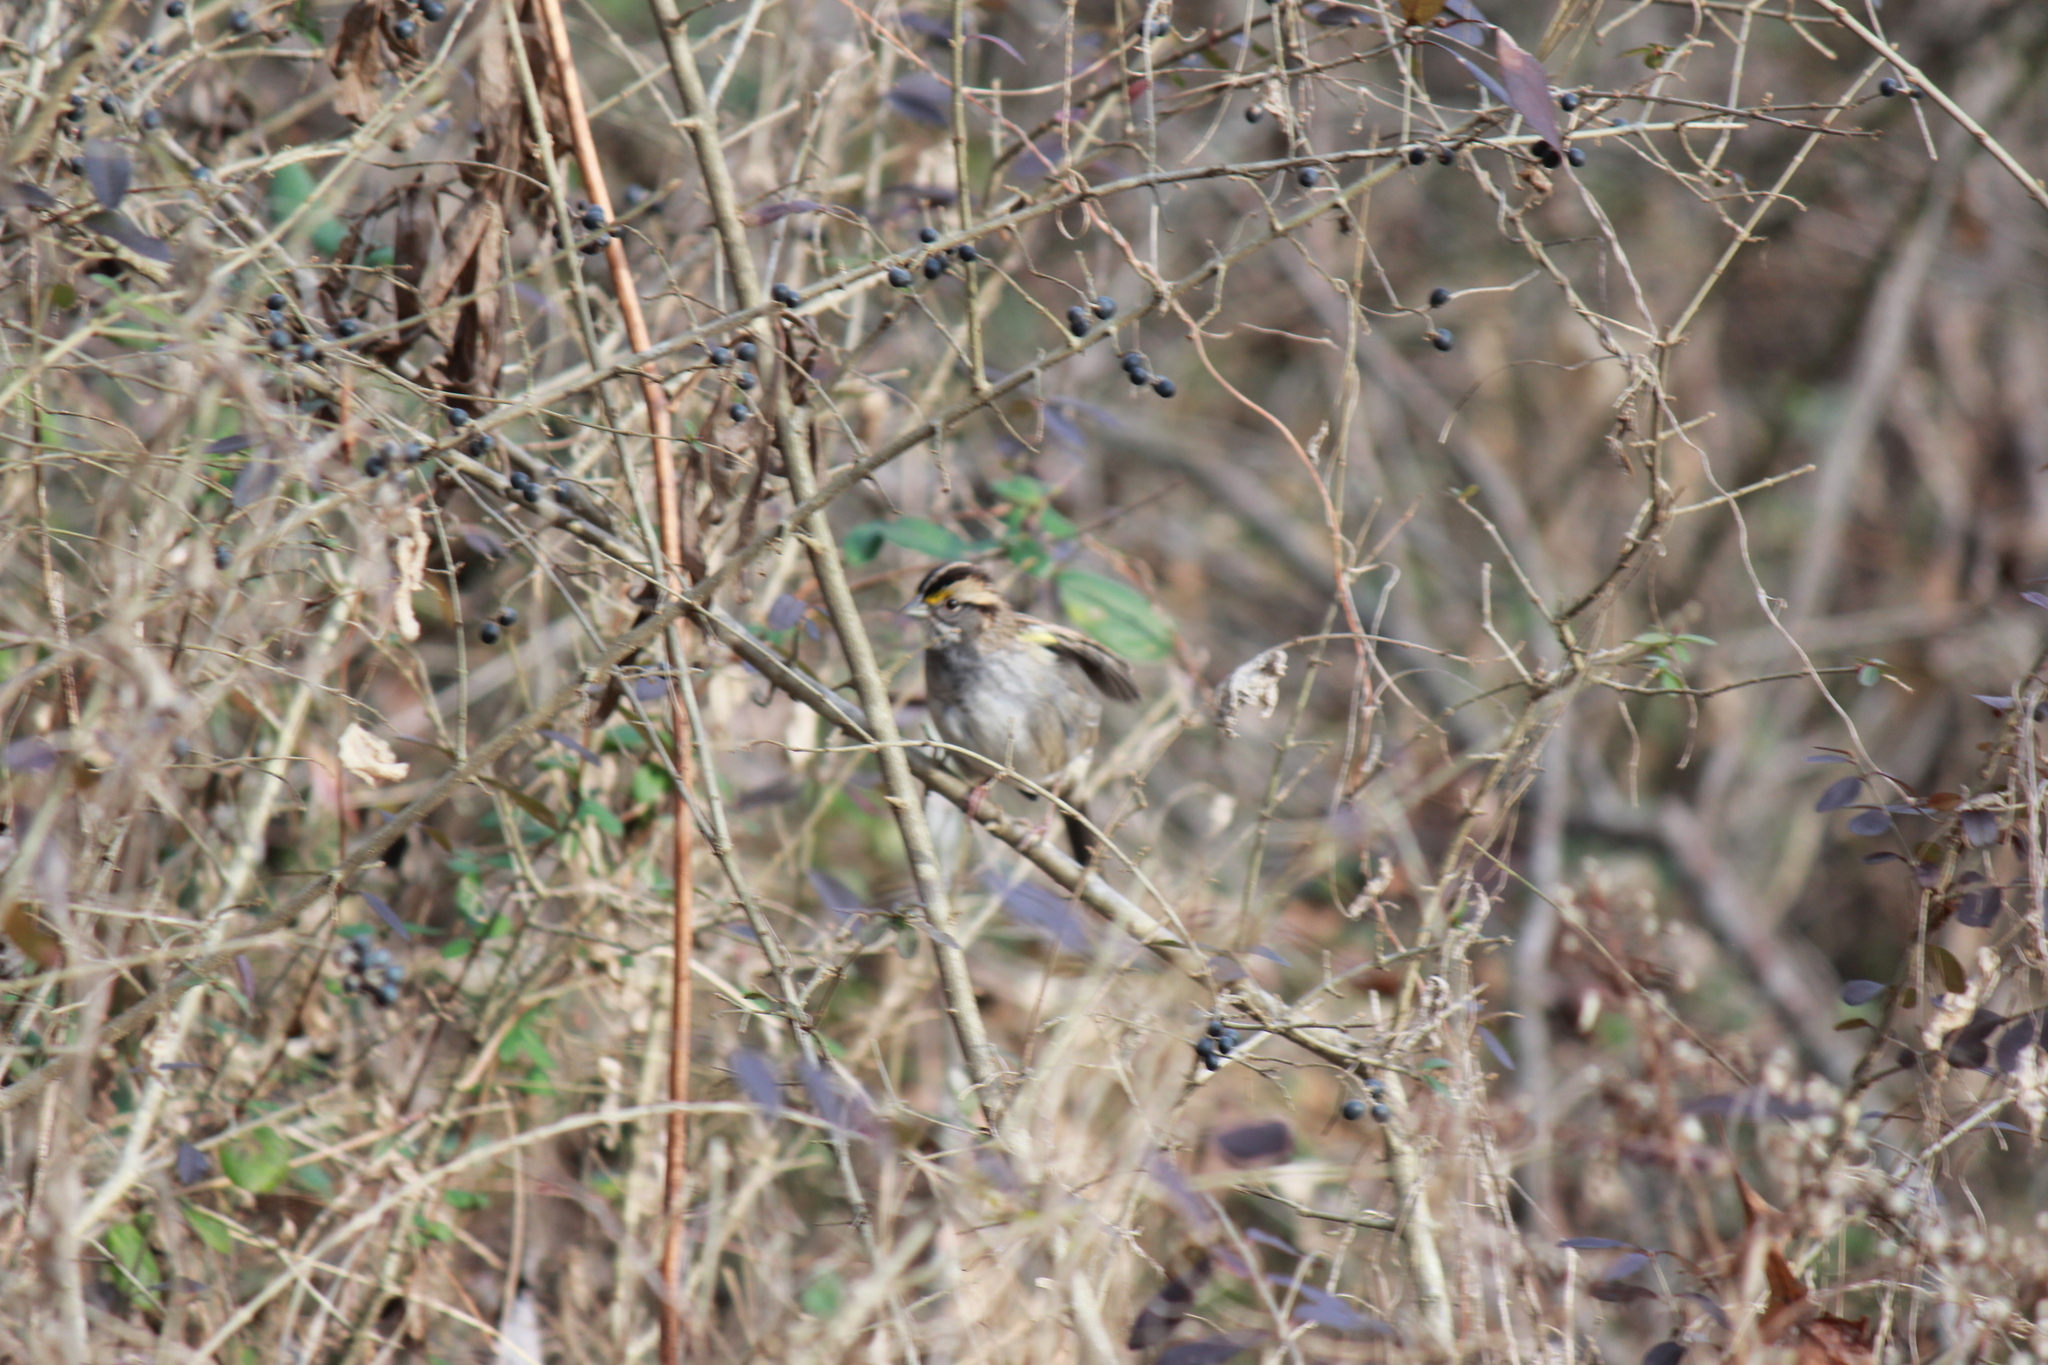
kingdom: Animalia
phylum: Chordata
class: Aves
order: Passeriformes
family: Passerellidae
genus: Zonotrichia
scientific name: Zonotrichia albicollis
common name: White-throated sparrow
